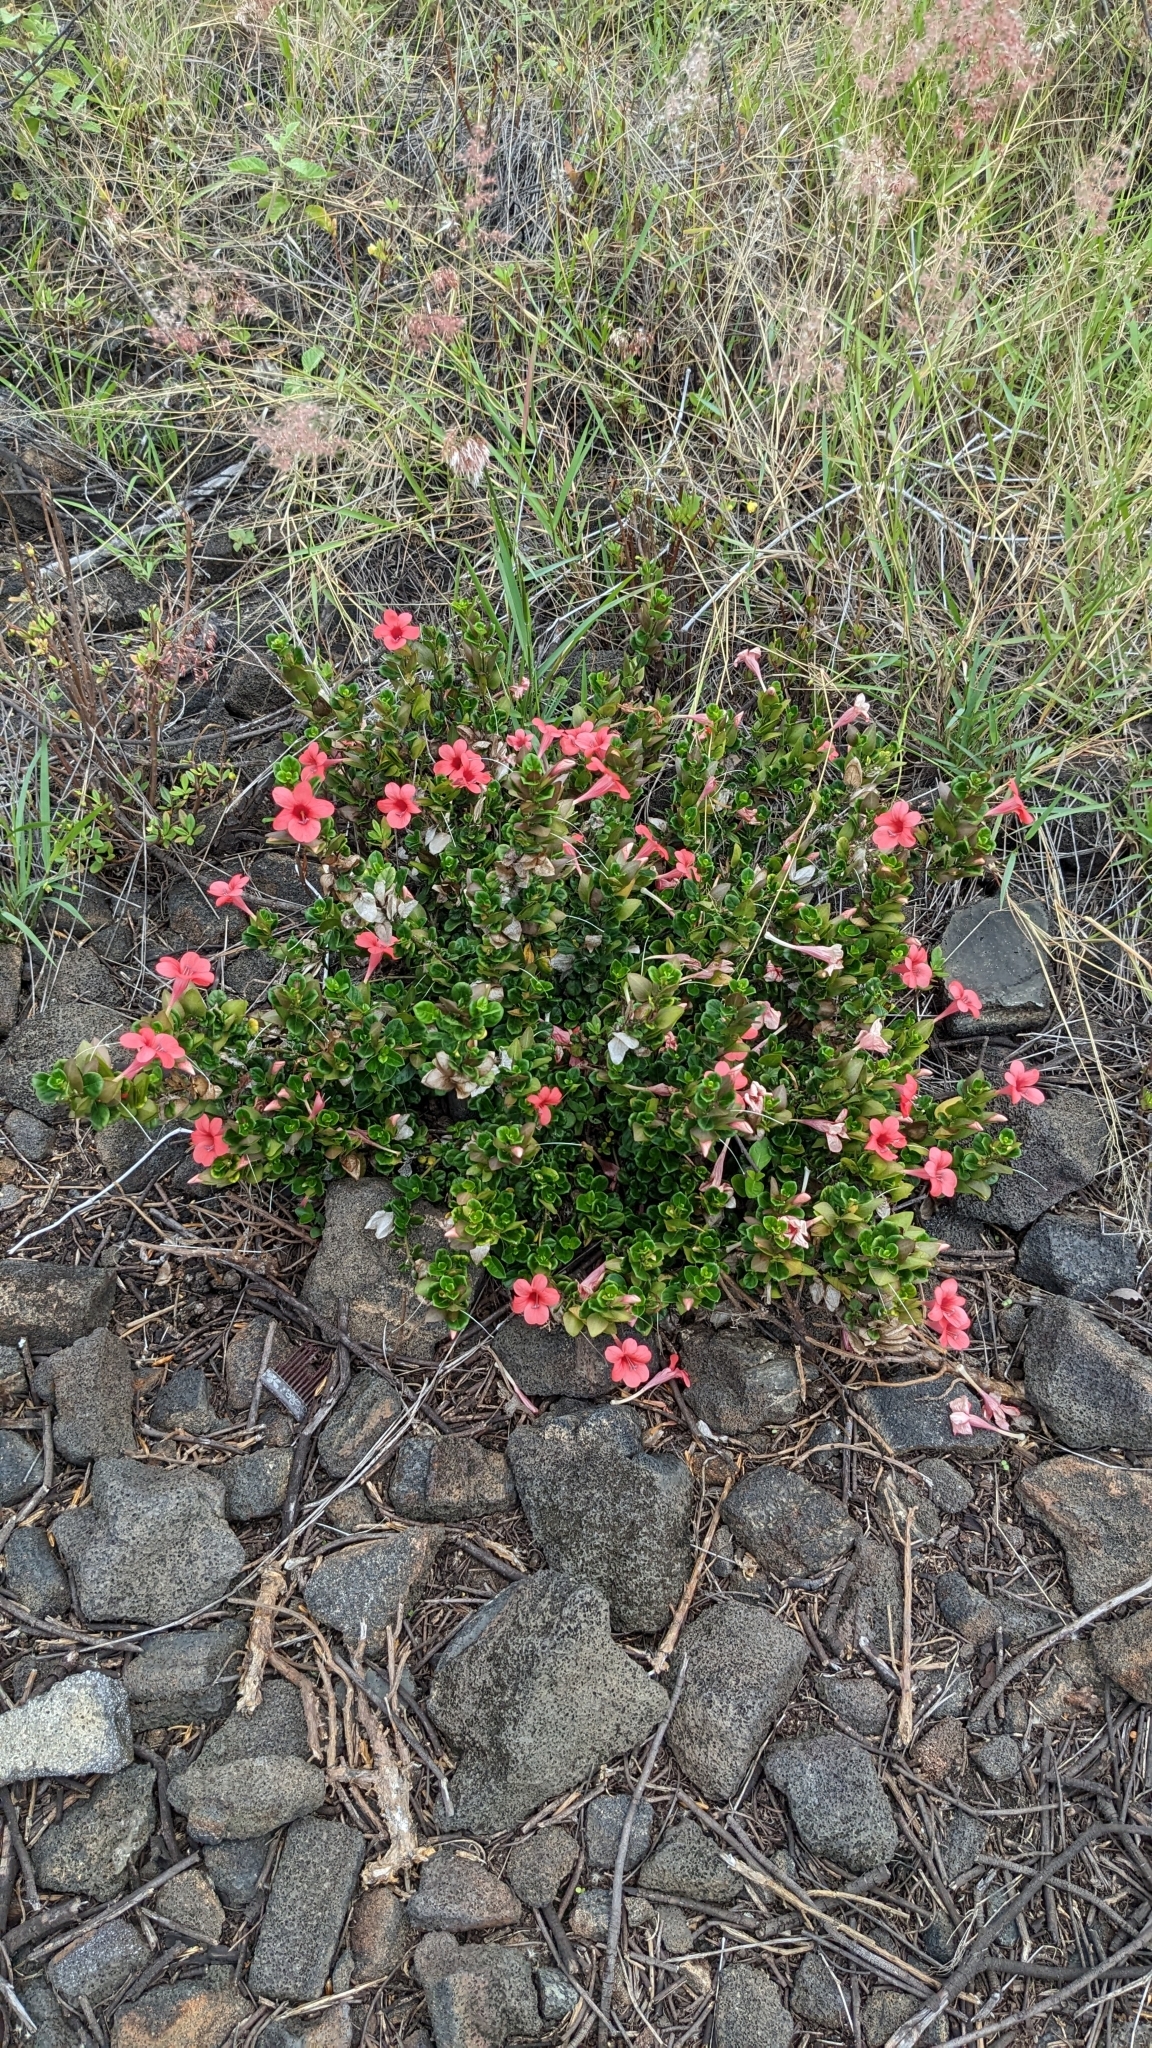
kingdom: Plantae
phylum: Tracheophyta
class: Magnoliopsida
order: Lamiales
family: Acanthaceae
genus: Barleria
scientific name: Barleria repens
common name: Pink-ruellia
